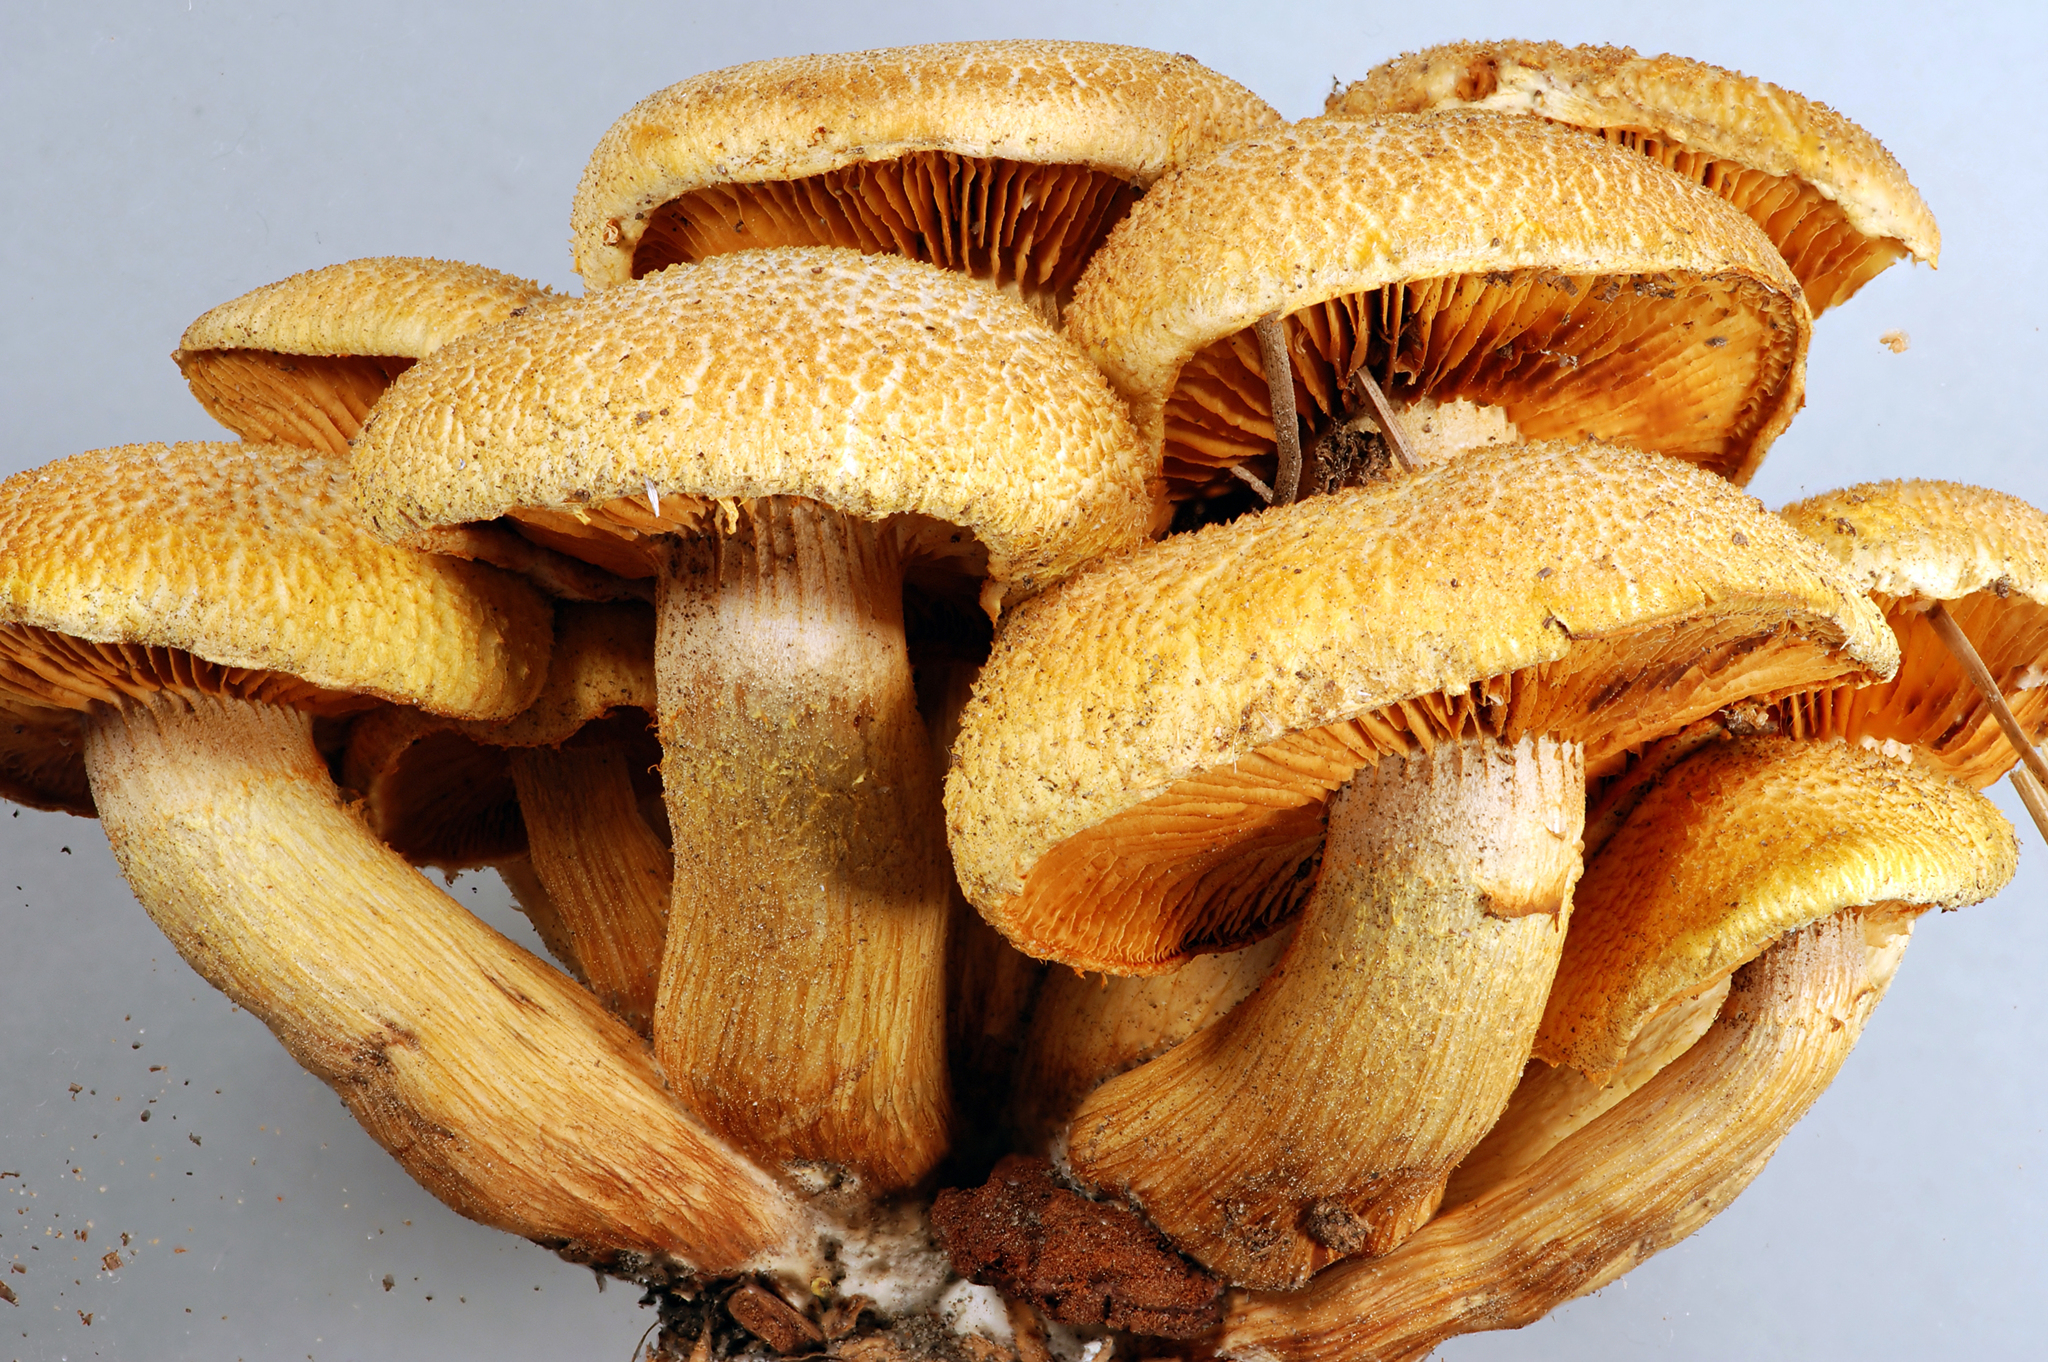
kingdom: Fungi
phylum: Basidiomycota
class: Agaricomycetes
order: Agaricales
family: Hymenogastraceae
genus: Gymnopilus
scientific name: Gymnopilus dilepis
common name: Magenta rustgill
